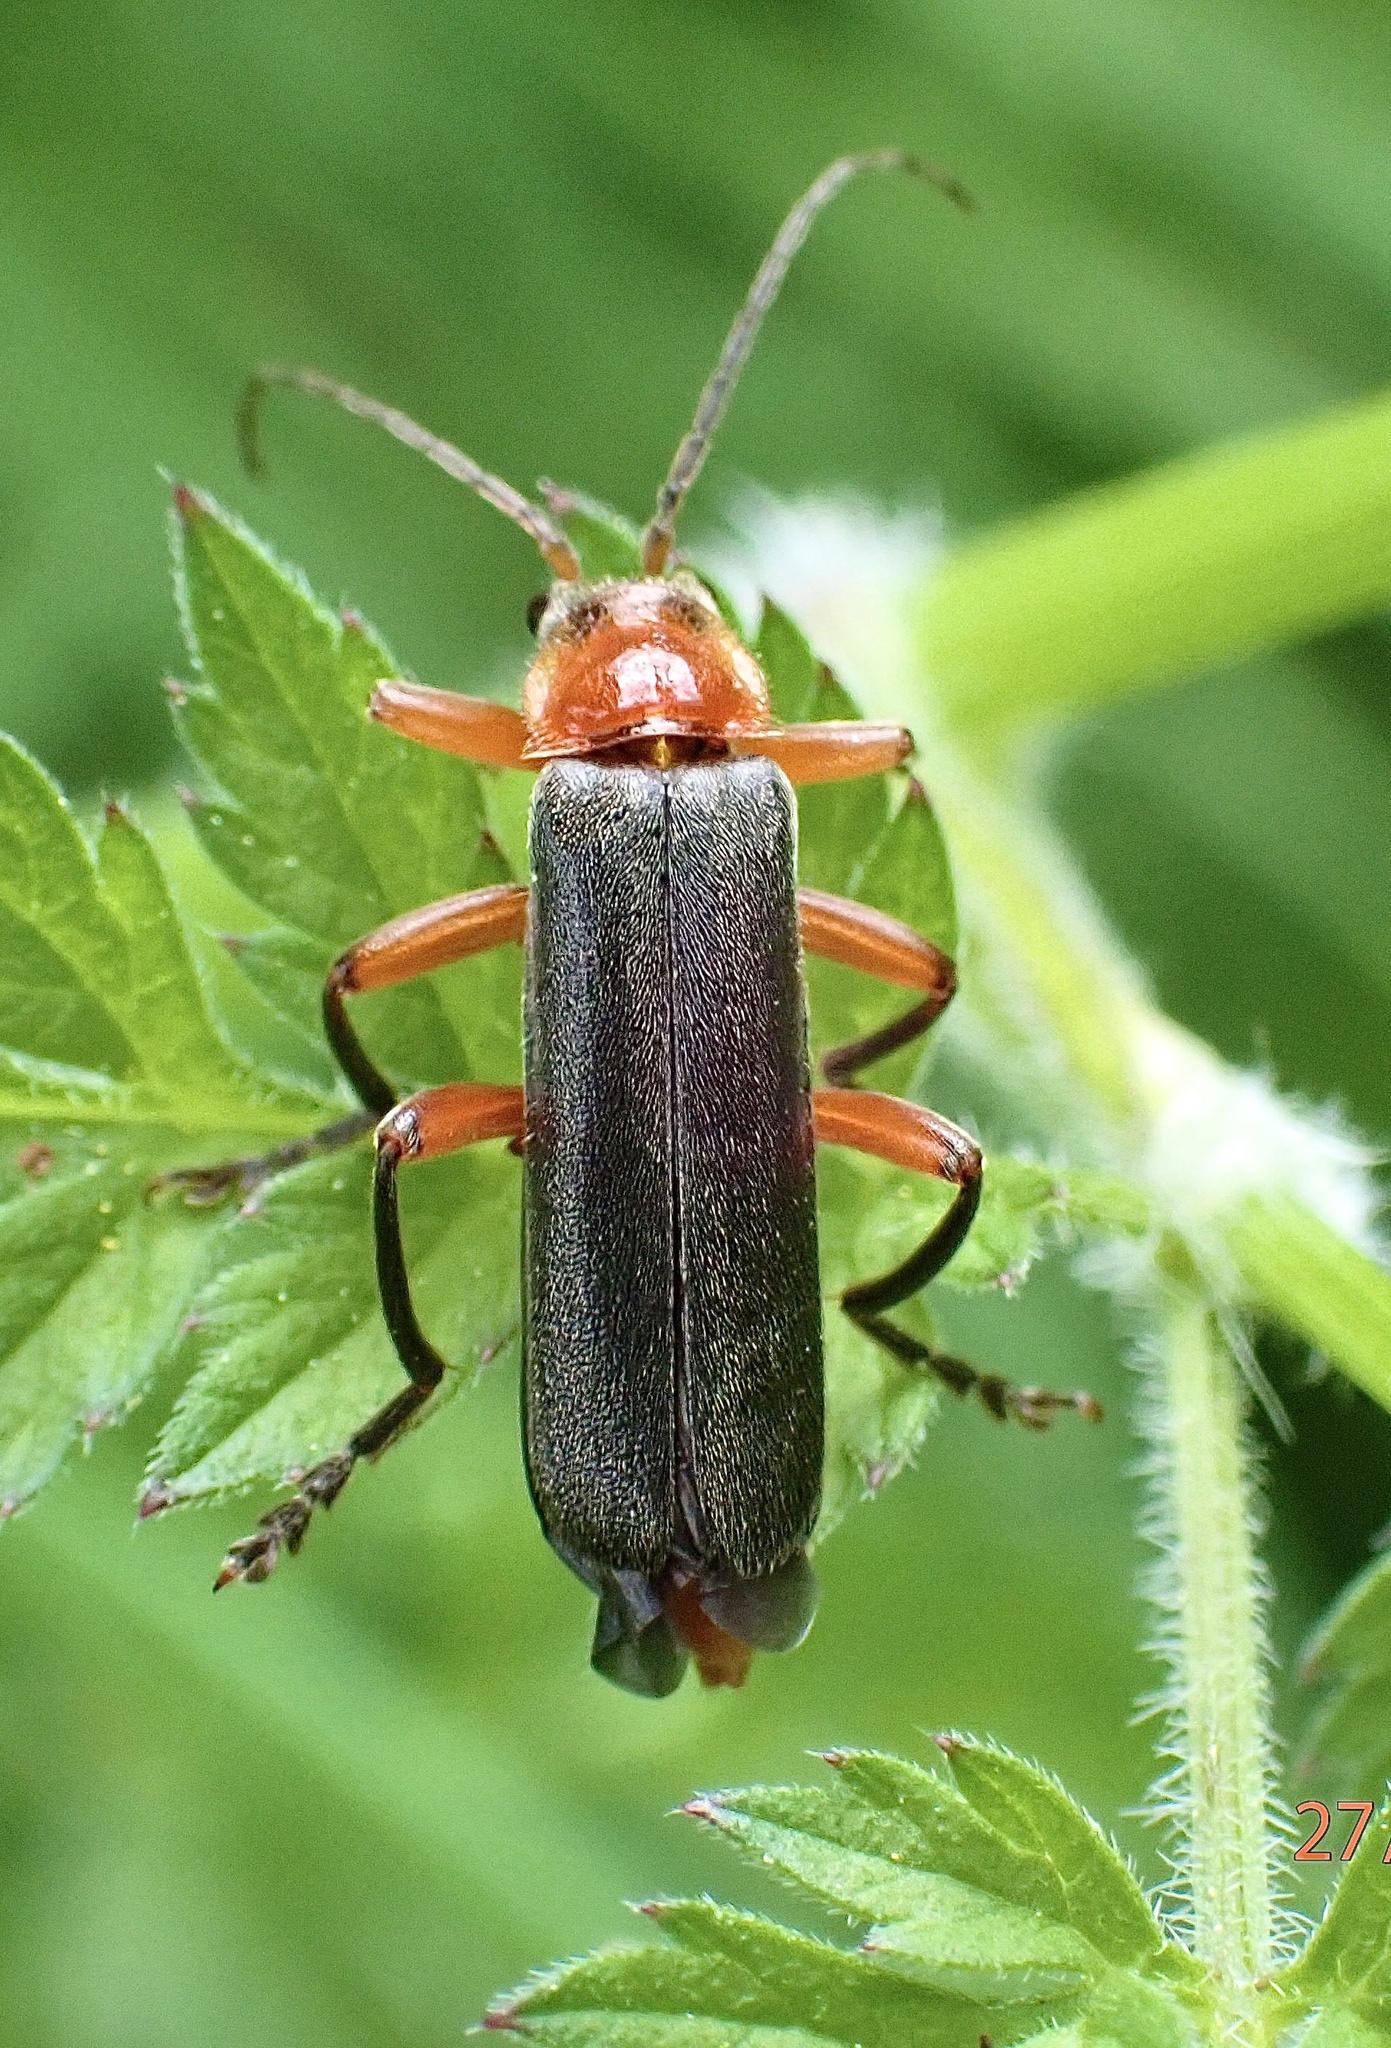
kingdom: Animalia
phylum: Arthropoda
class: Insecta
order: Coleoptera
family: Cantharidae
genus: Cantharis
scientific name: Cantharis pellucida
